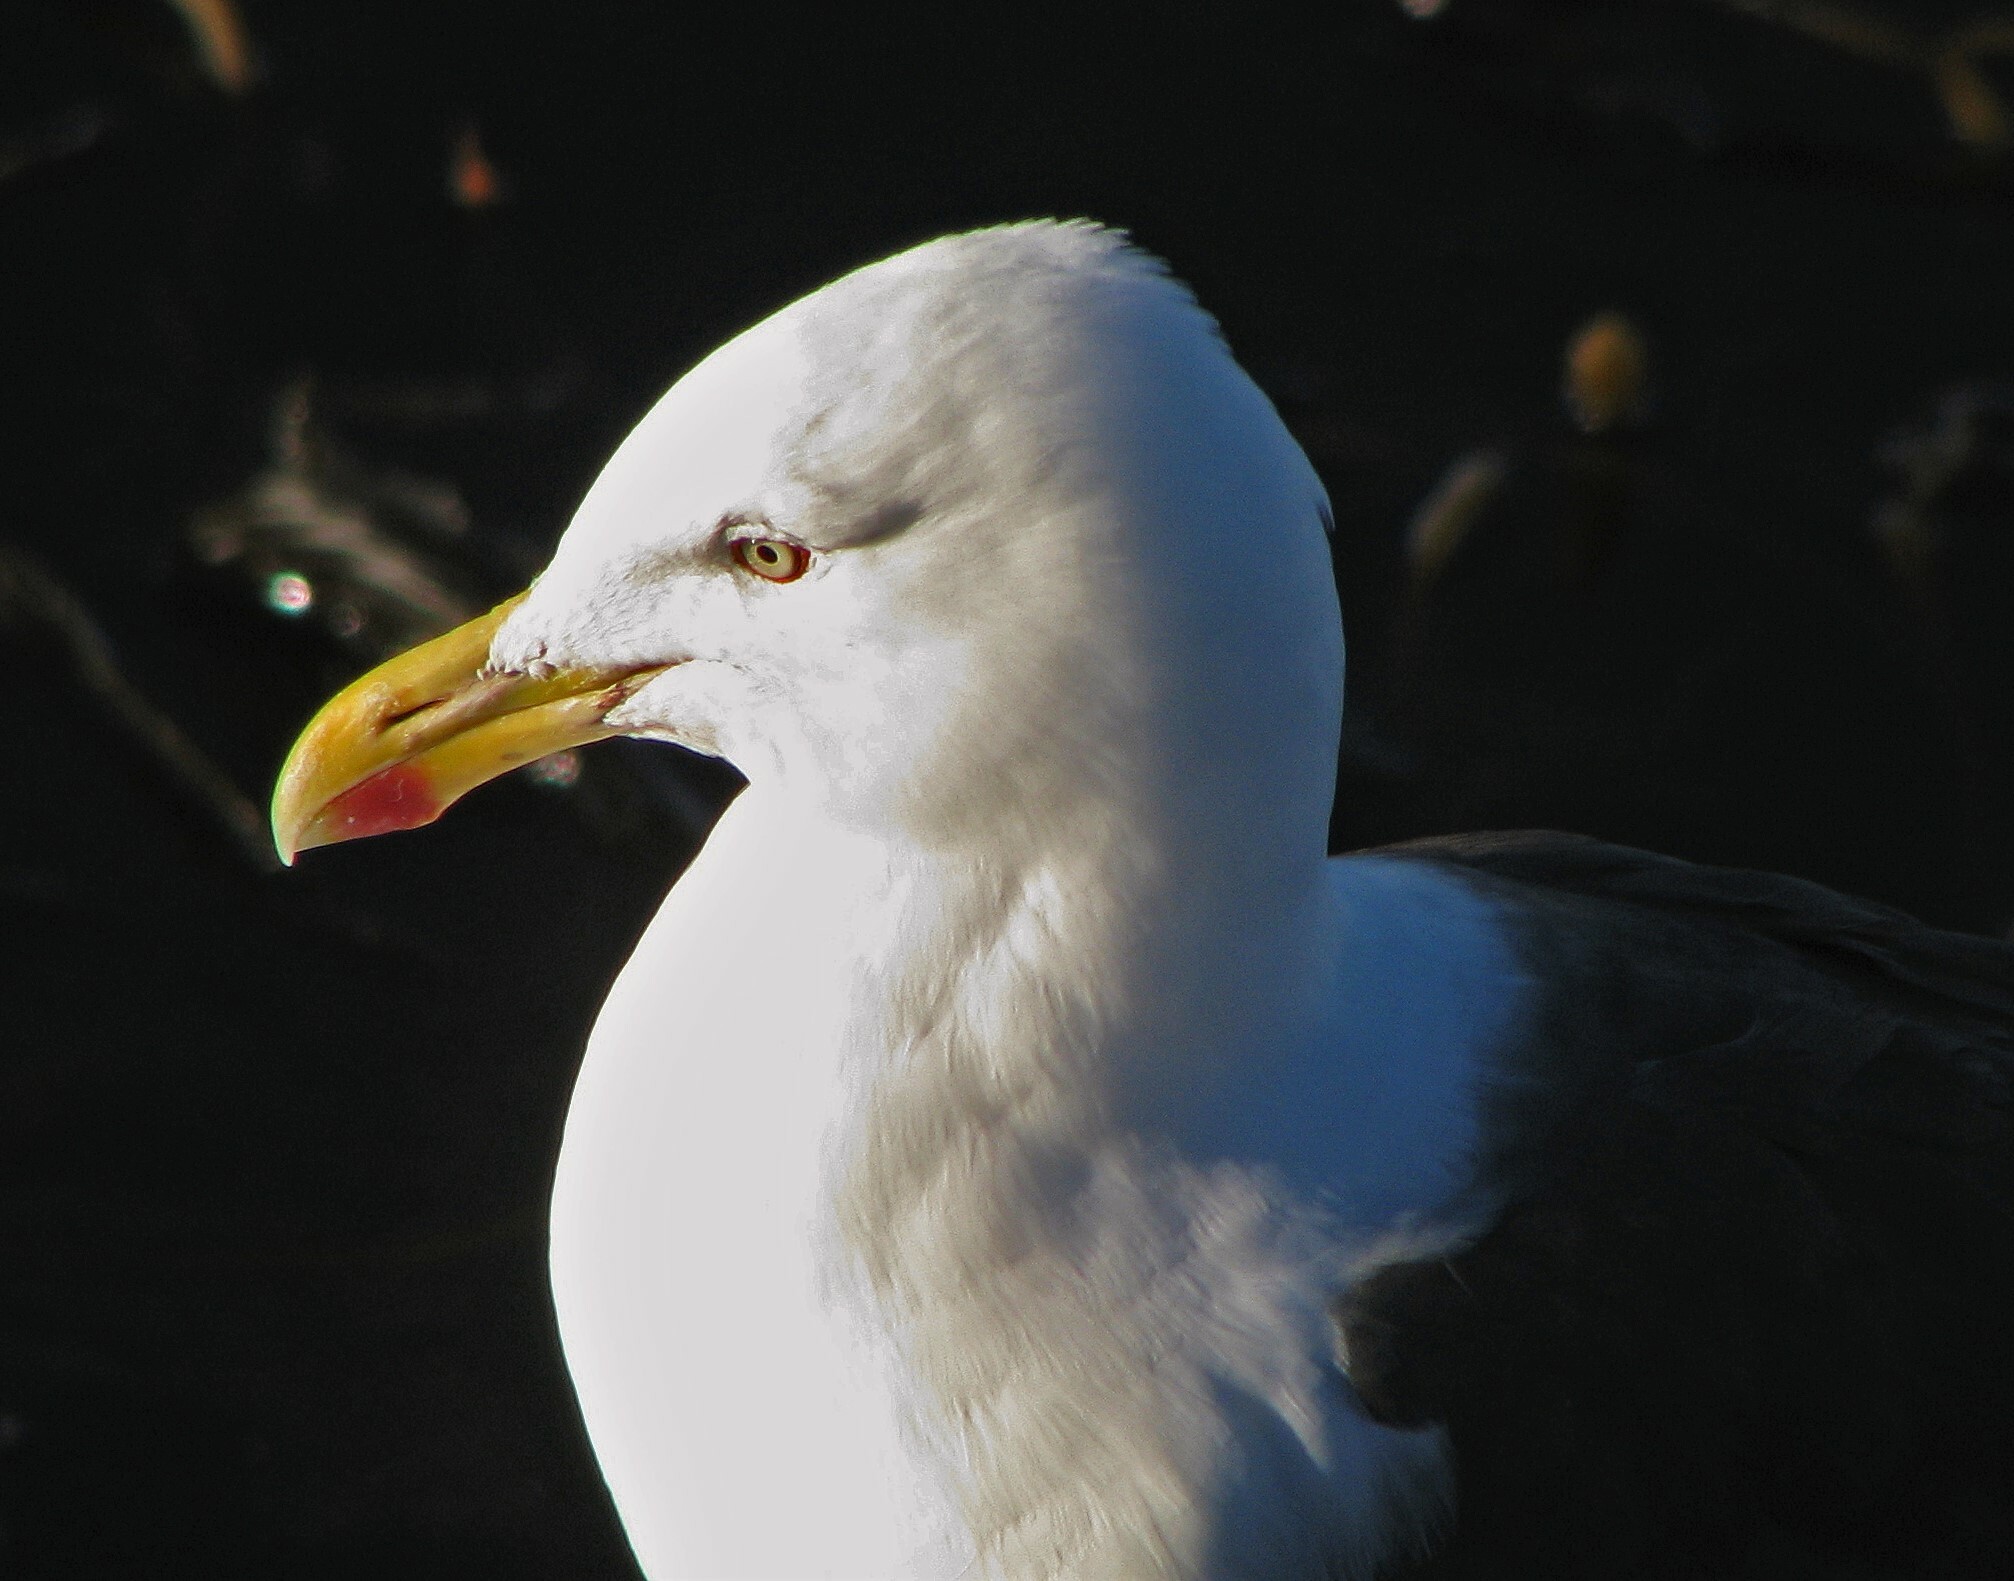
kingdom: Animalia
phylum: Chordata
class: Aves
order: Charadriiformes
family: Laridae
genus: Larus
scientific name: Larus dominicanus
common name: Kelp gull
